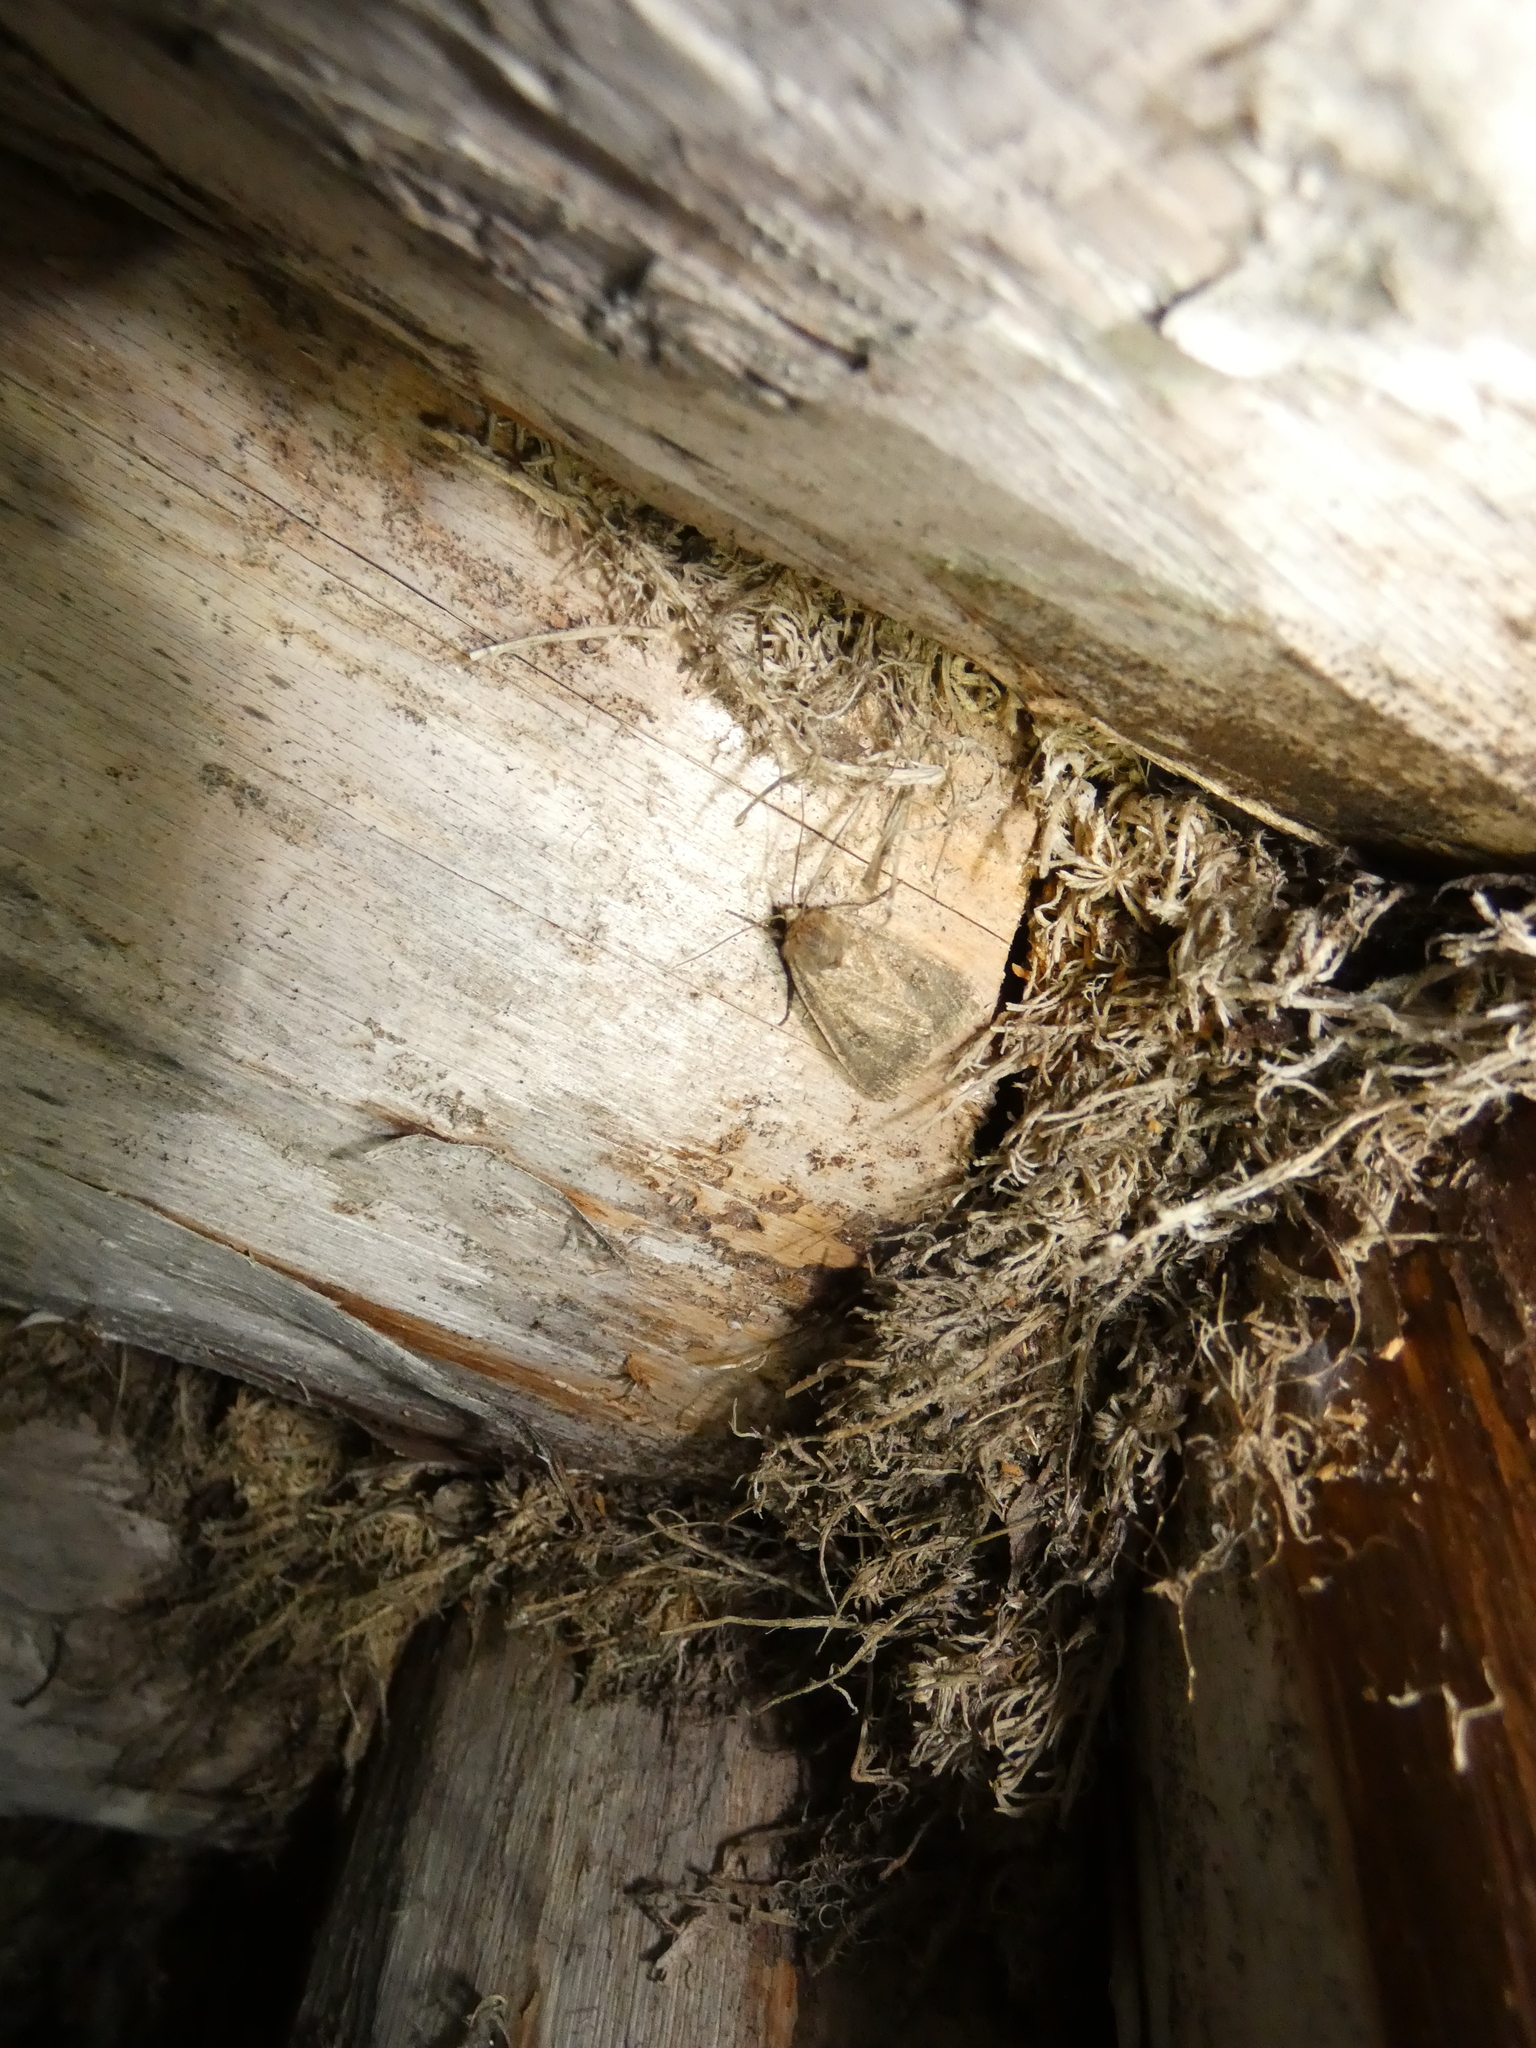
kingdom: Animalia
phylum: Arthropoda
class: Insecta
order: Lepidoptera
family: Noctuidae
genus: Graphiphora
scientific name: Graphiphora augur
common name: Double dart
